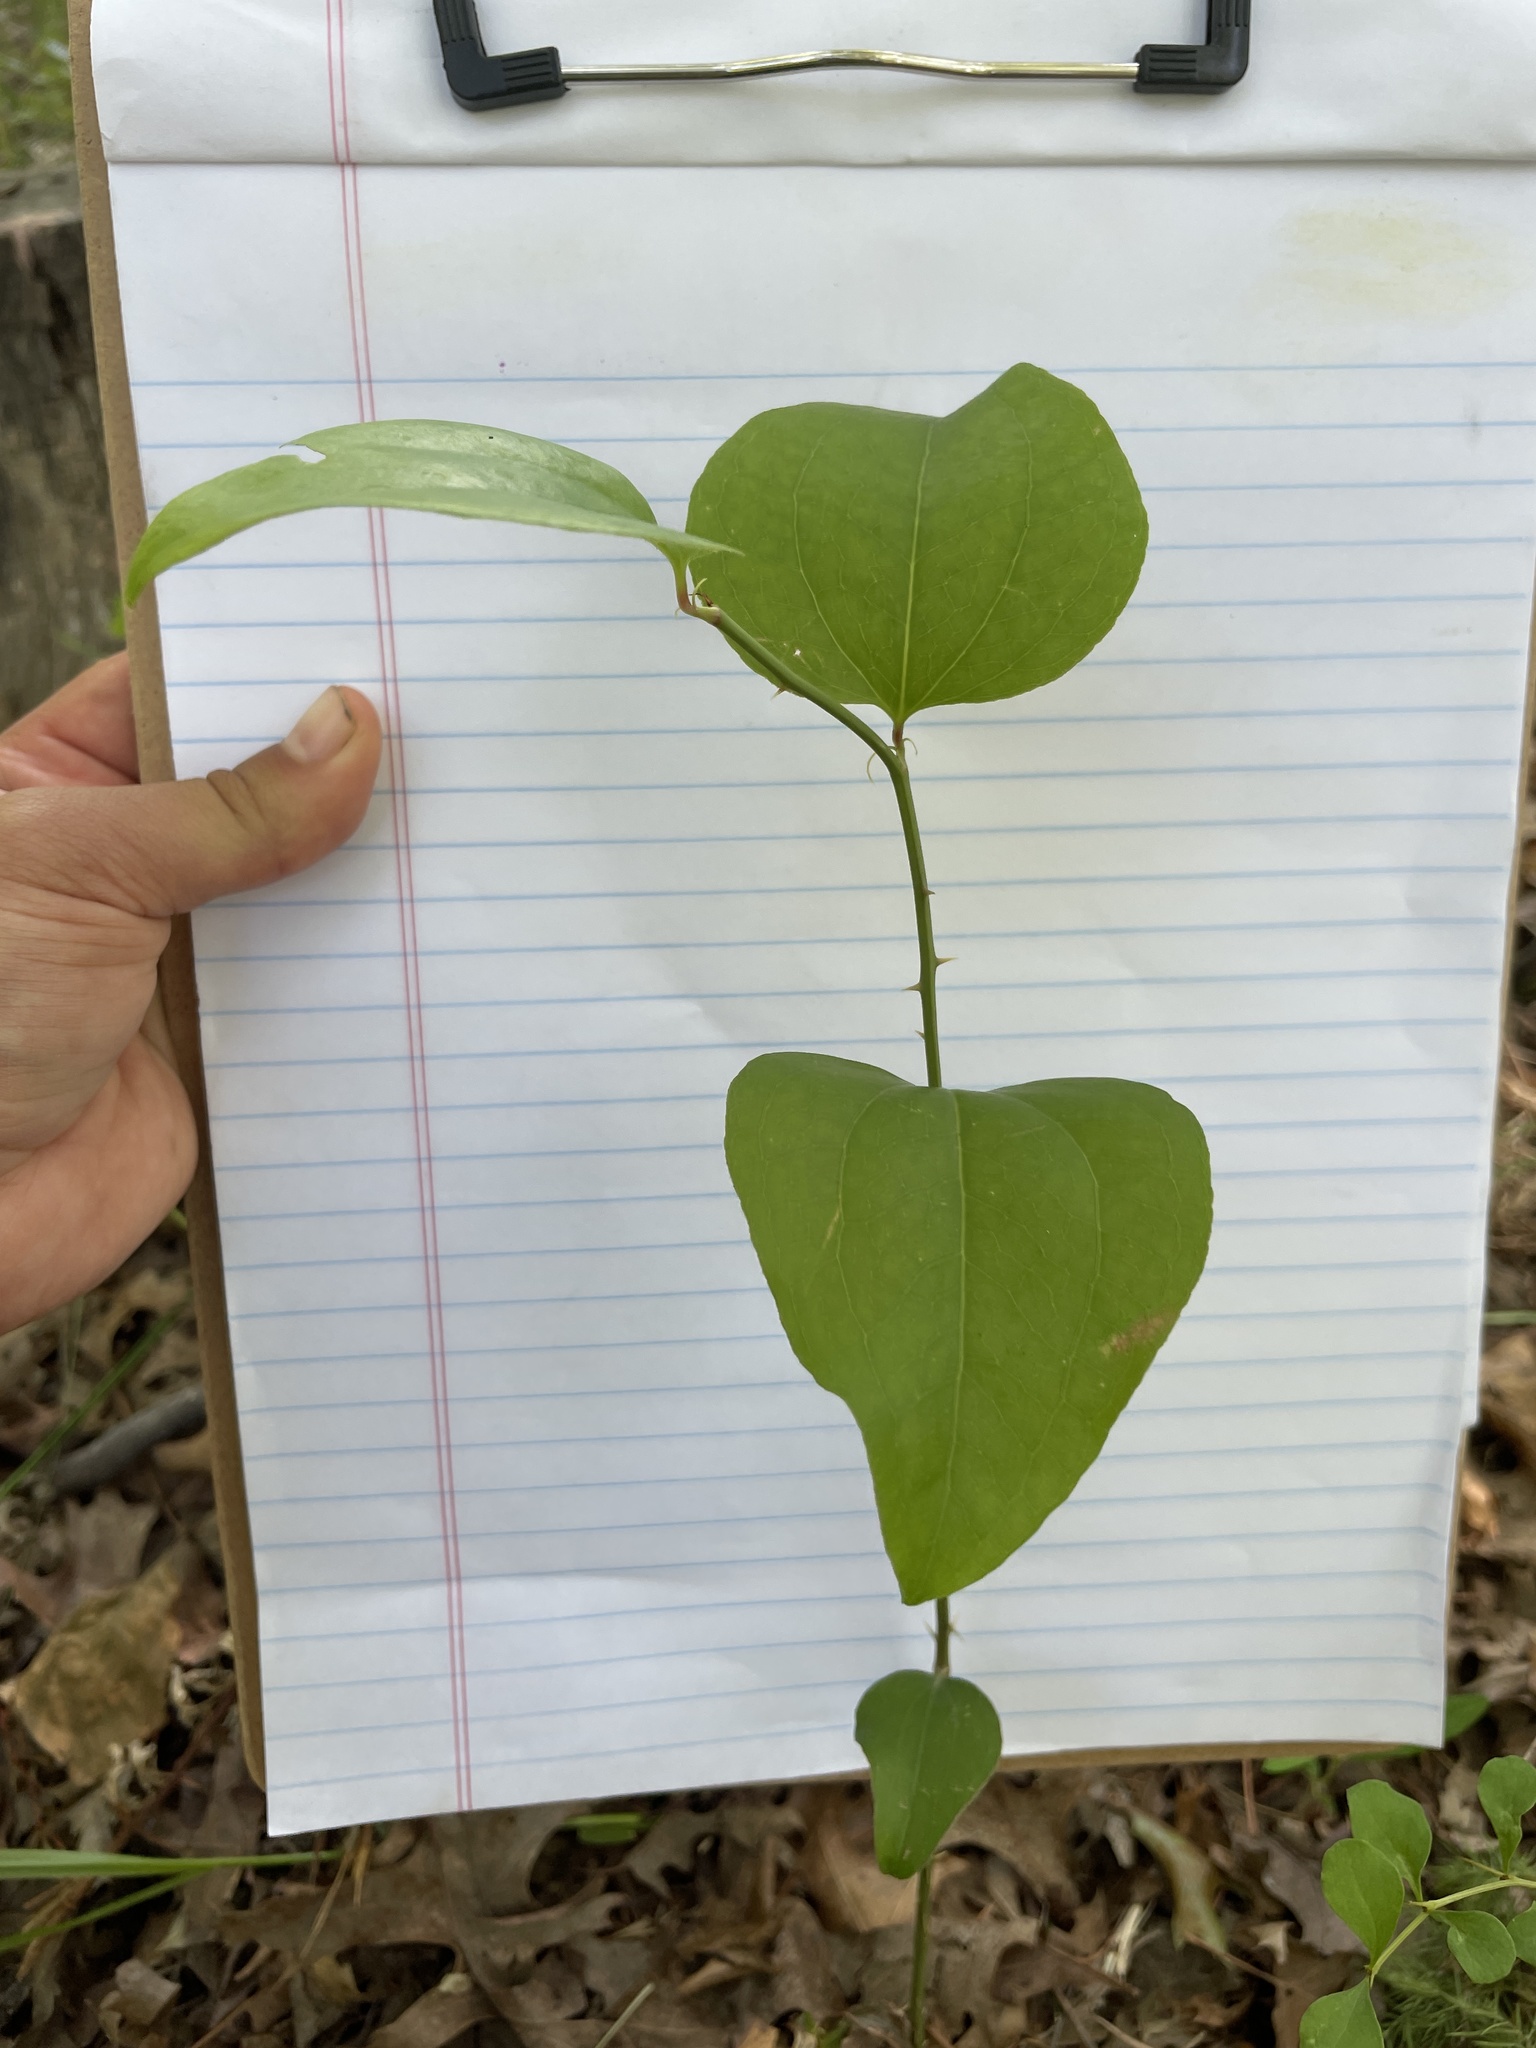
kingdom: Plantae
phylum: Tracheophyta
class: Liliopsida
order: Liliales
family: Smilacaceae
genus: Smilax
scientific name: Smilax rotundifolia
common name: Bullbriar
